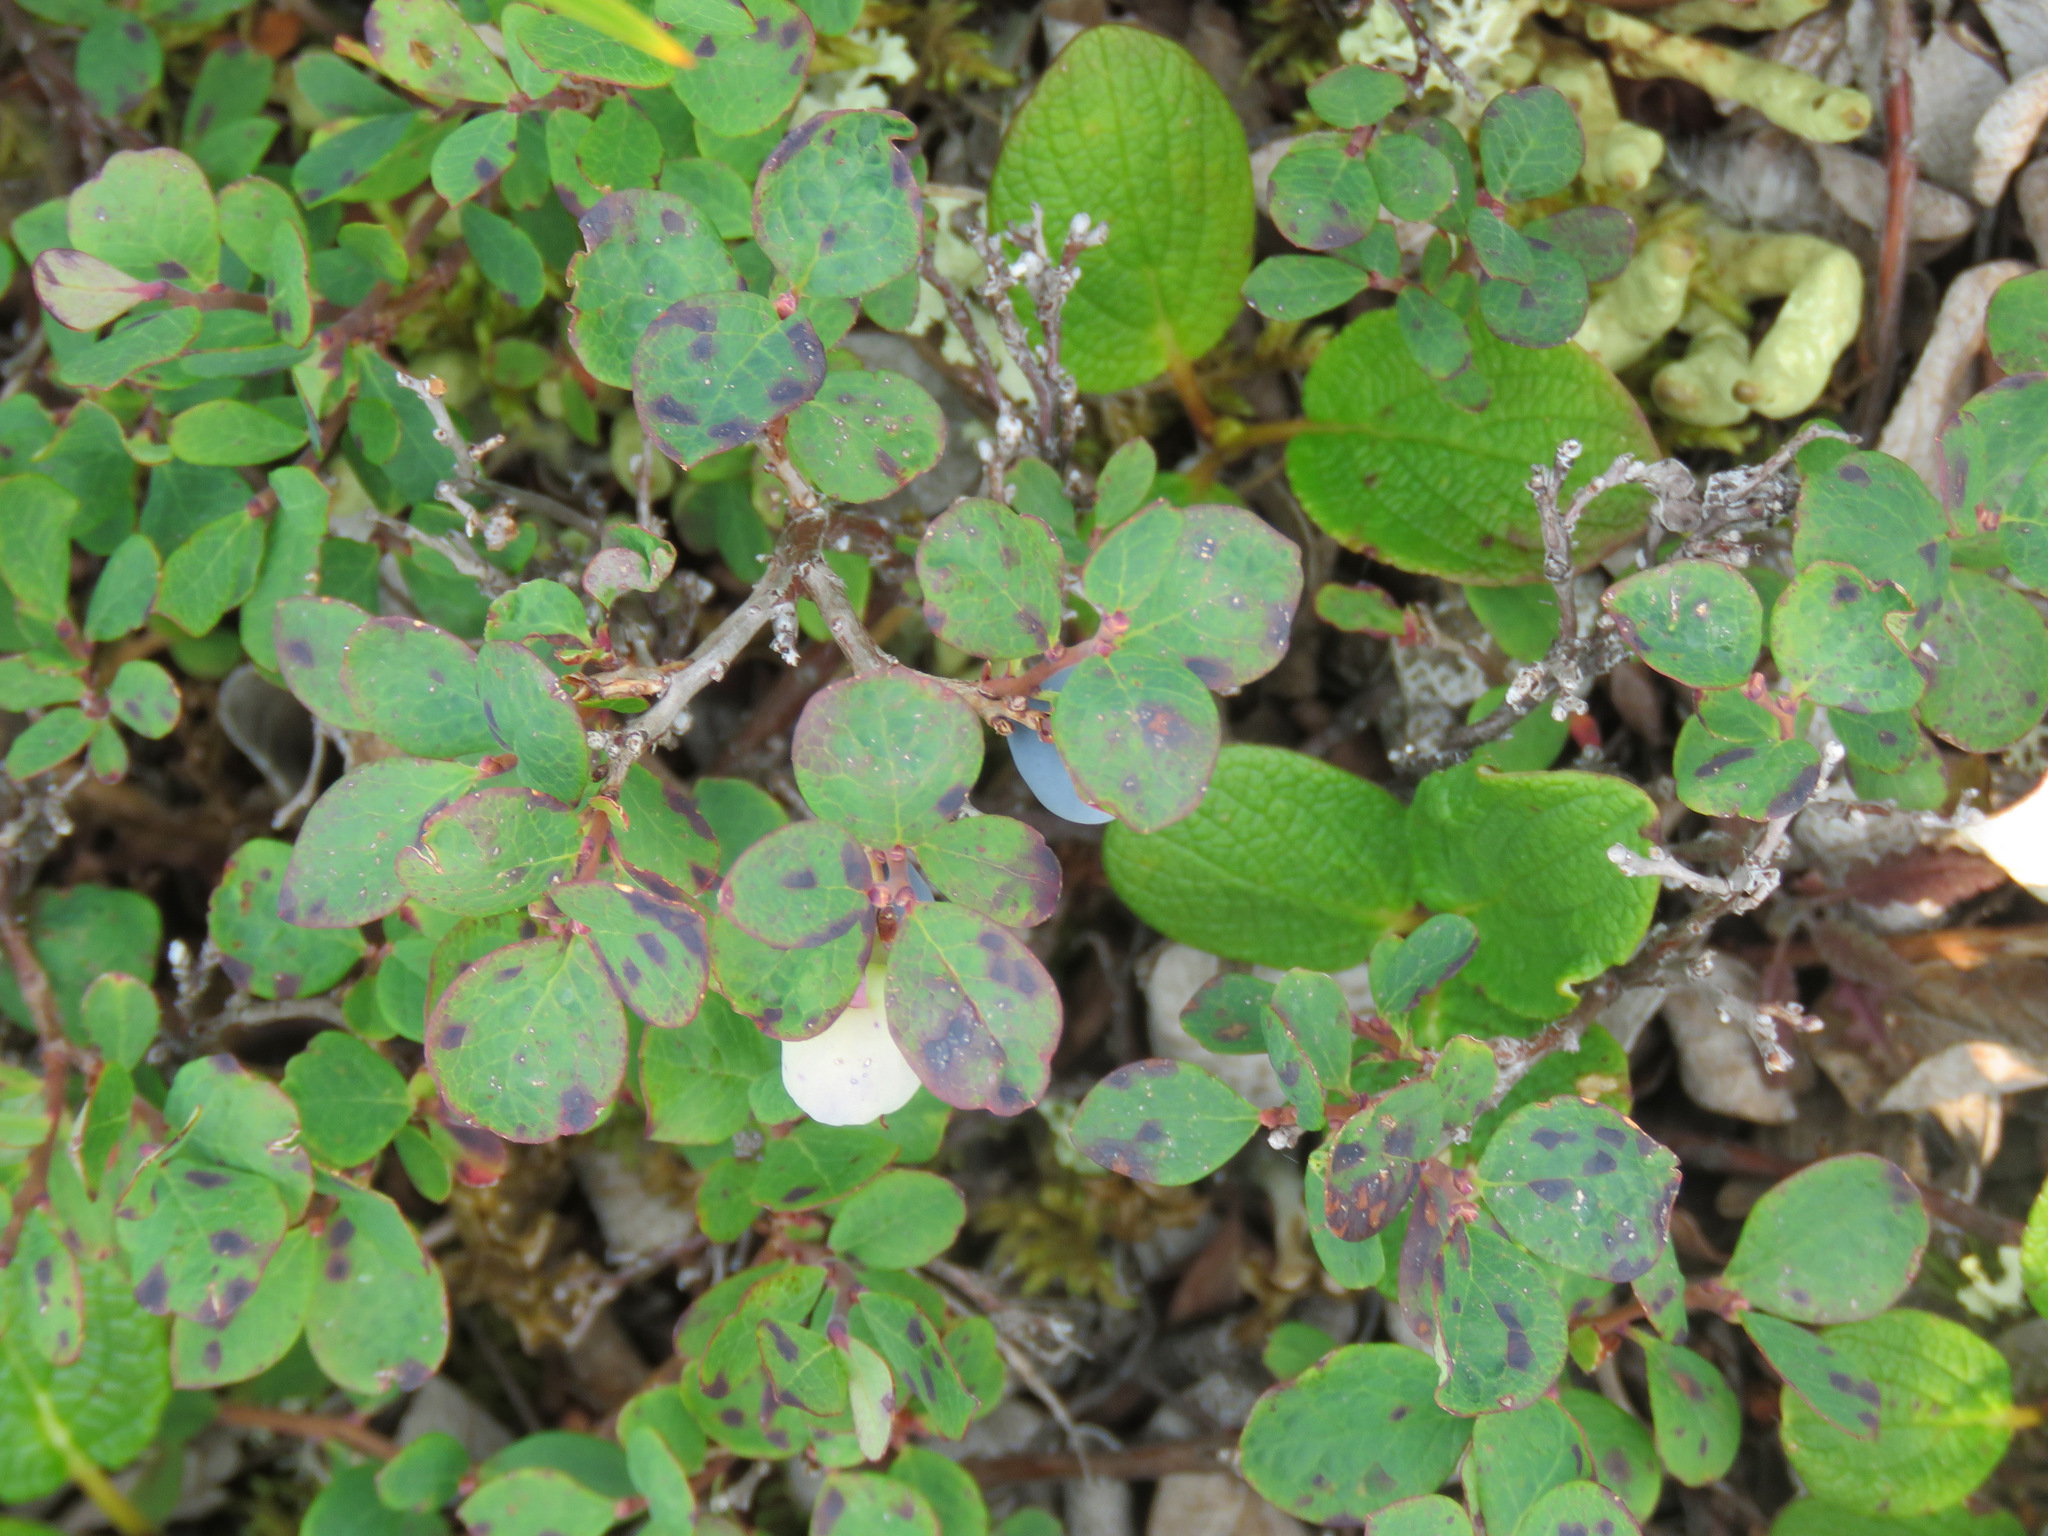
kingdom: Plantae
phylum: Tracheophyta
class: Magnoliopsida
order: Ericales
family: Ericaceae
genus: Vaccinium
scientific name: Vaccinium uliginosum
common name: Bog bilberry
